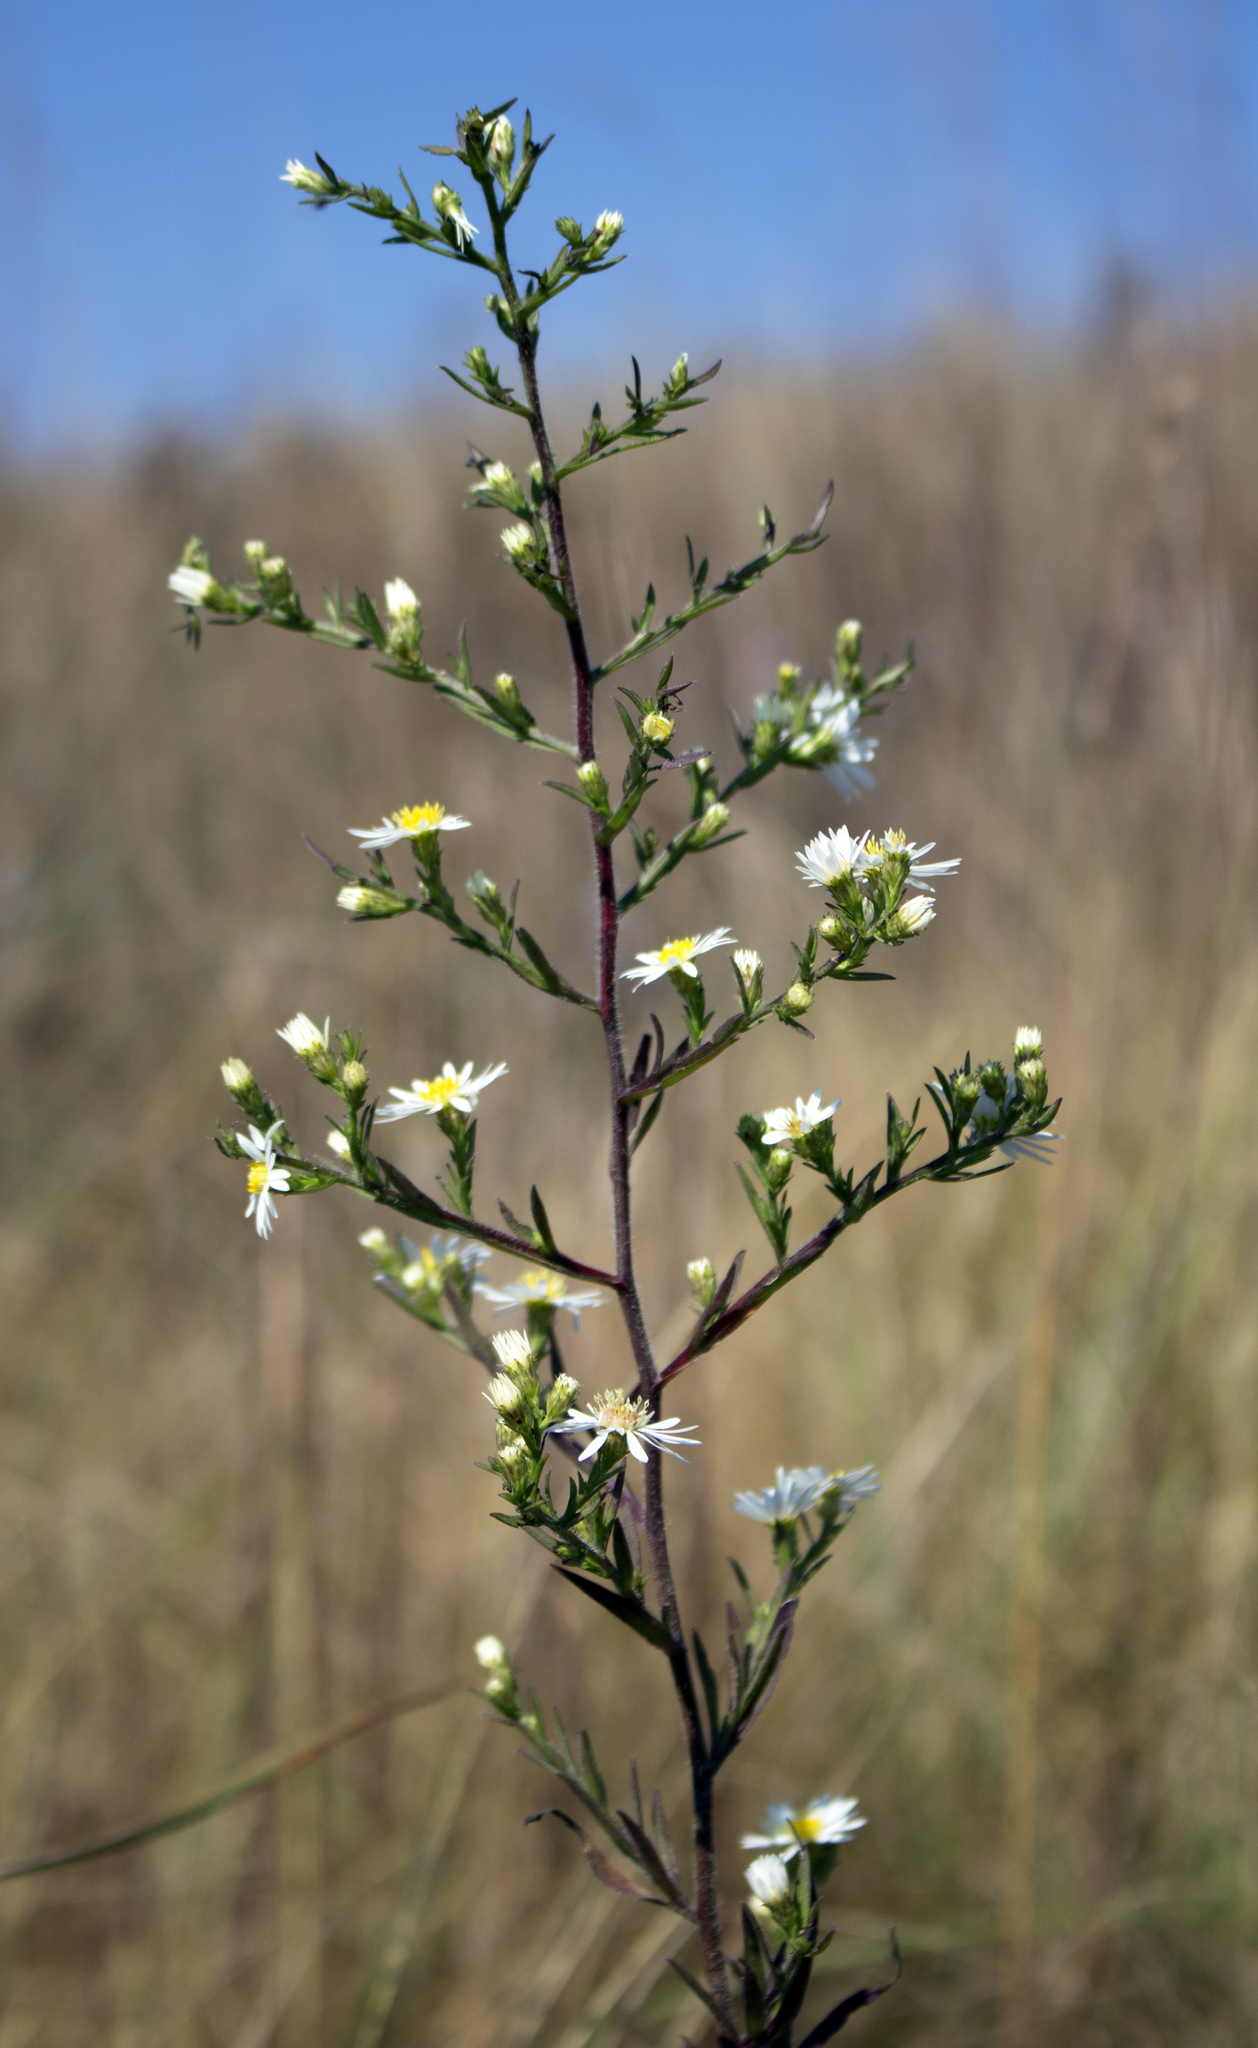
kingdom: Plantae
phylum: Tracheophyta
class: Magnoliopsida
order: Asterales
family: Asteraceae
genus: Symphyotrichum
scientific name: Symphyotrichum pilosum
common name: Awl aster
